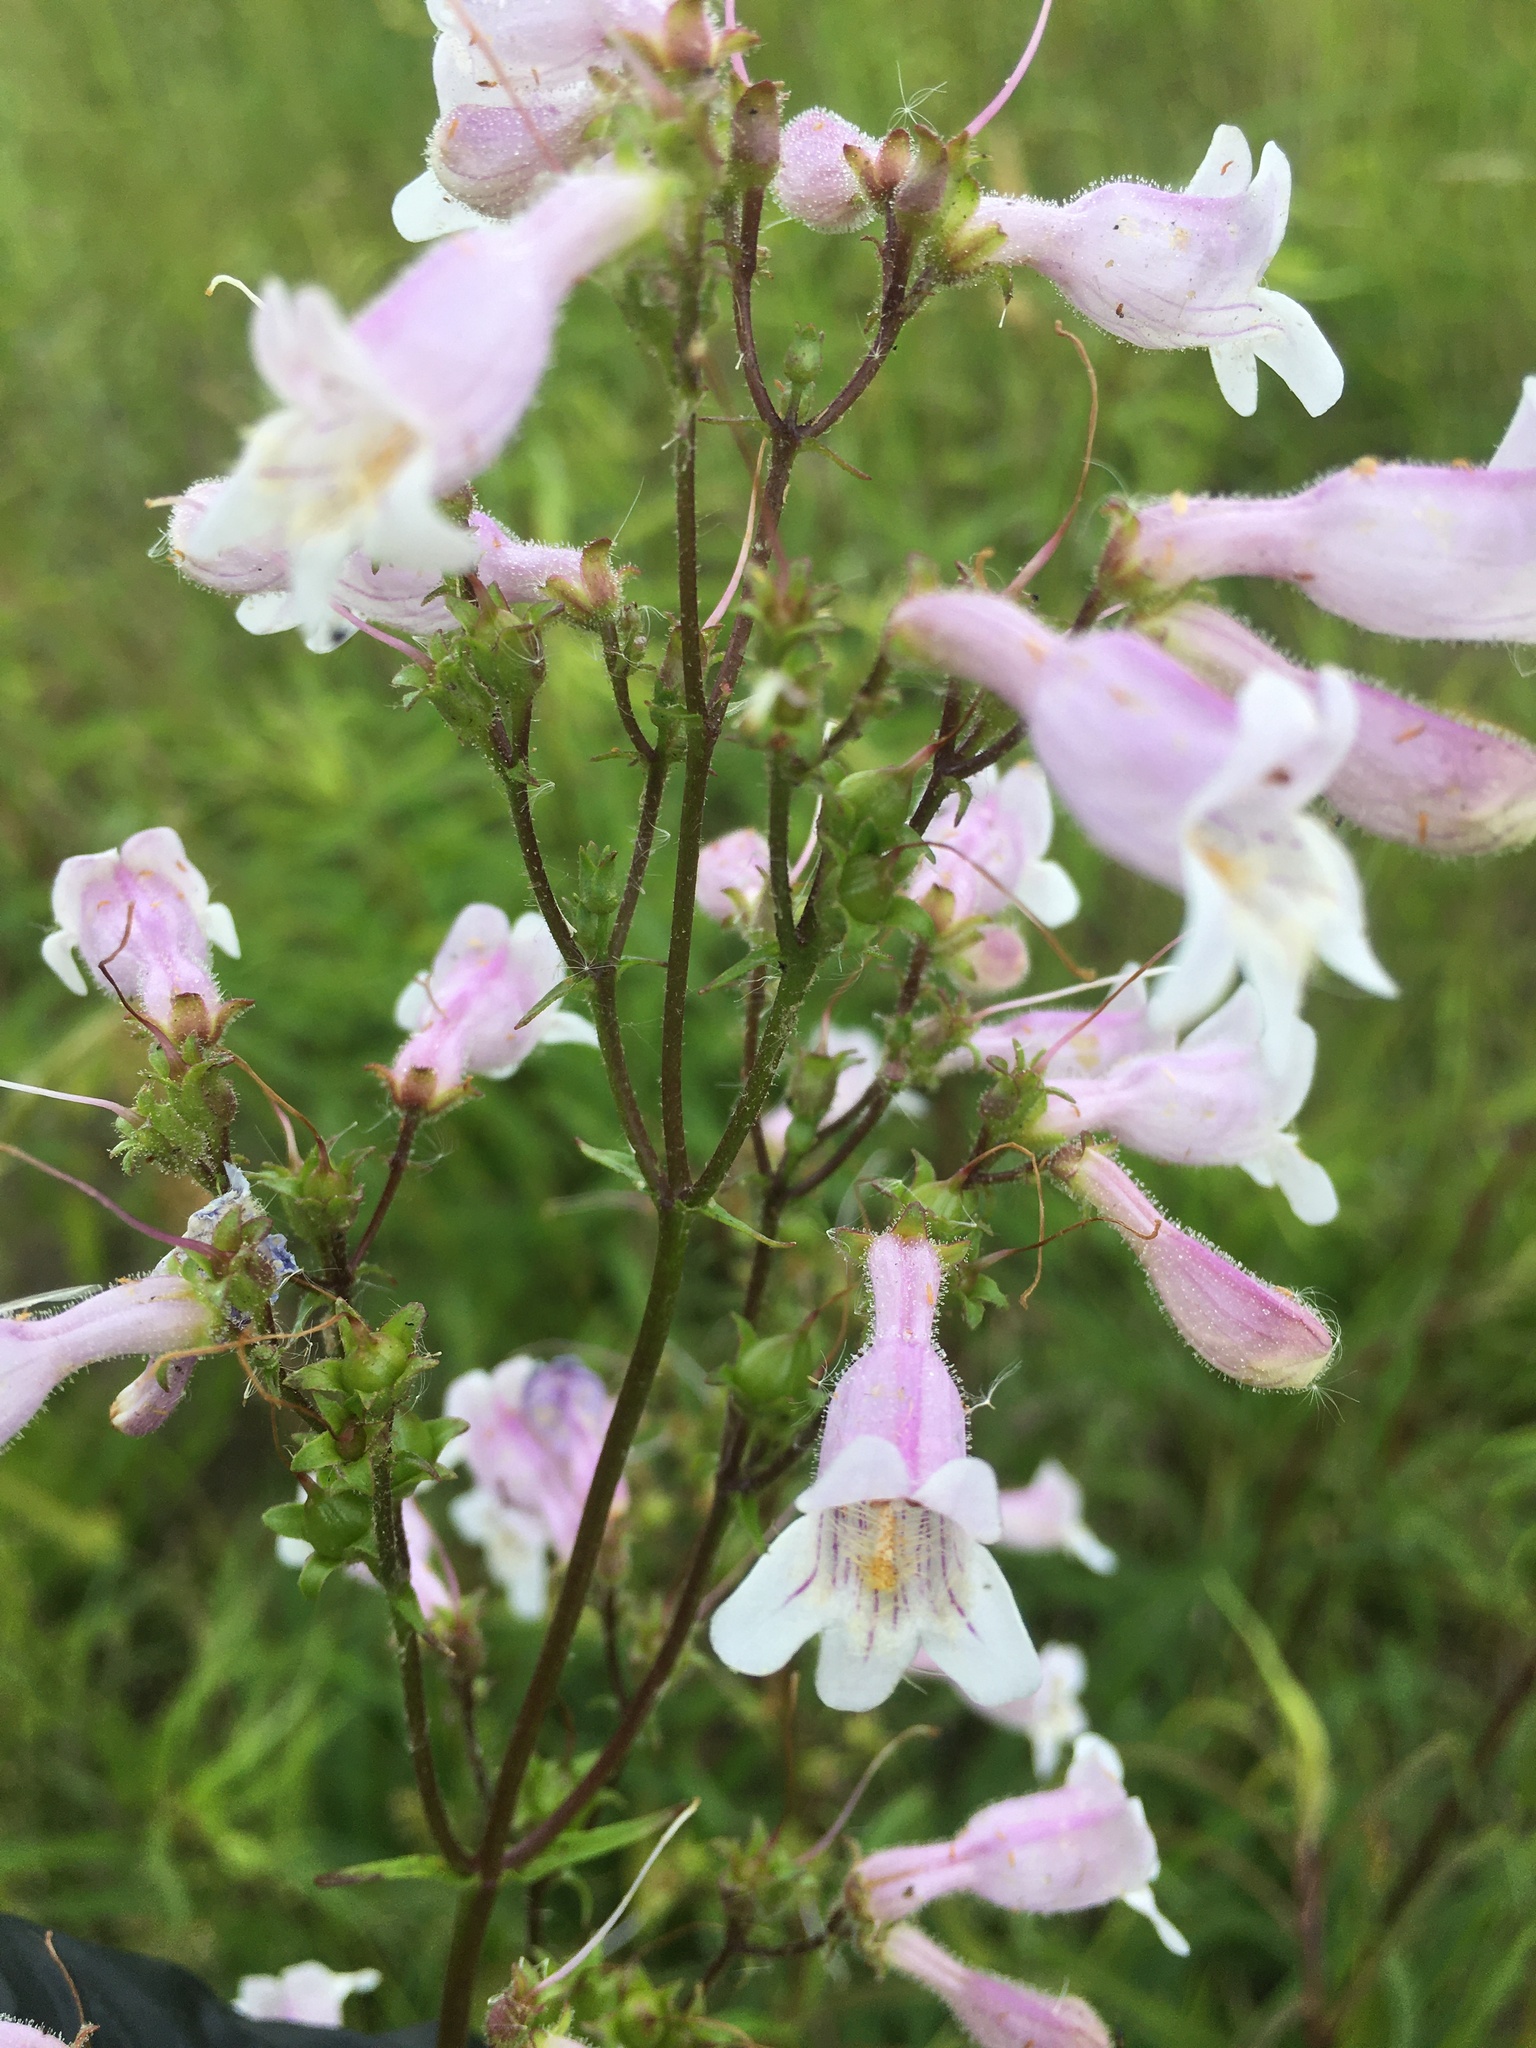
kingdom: Plantae
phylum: Tracheophyta
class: Magnoliopsida
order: Lamiales
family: Plantaginaceae
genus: Penstemon
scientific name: Penstemon laevigatus
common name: Eastern beardtongue
